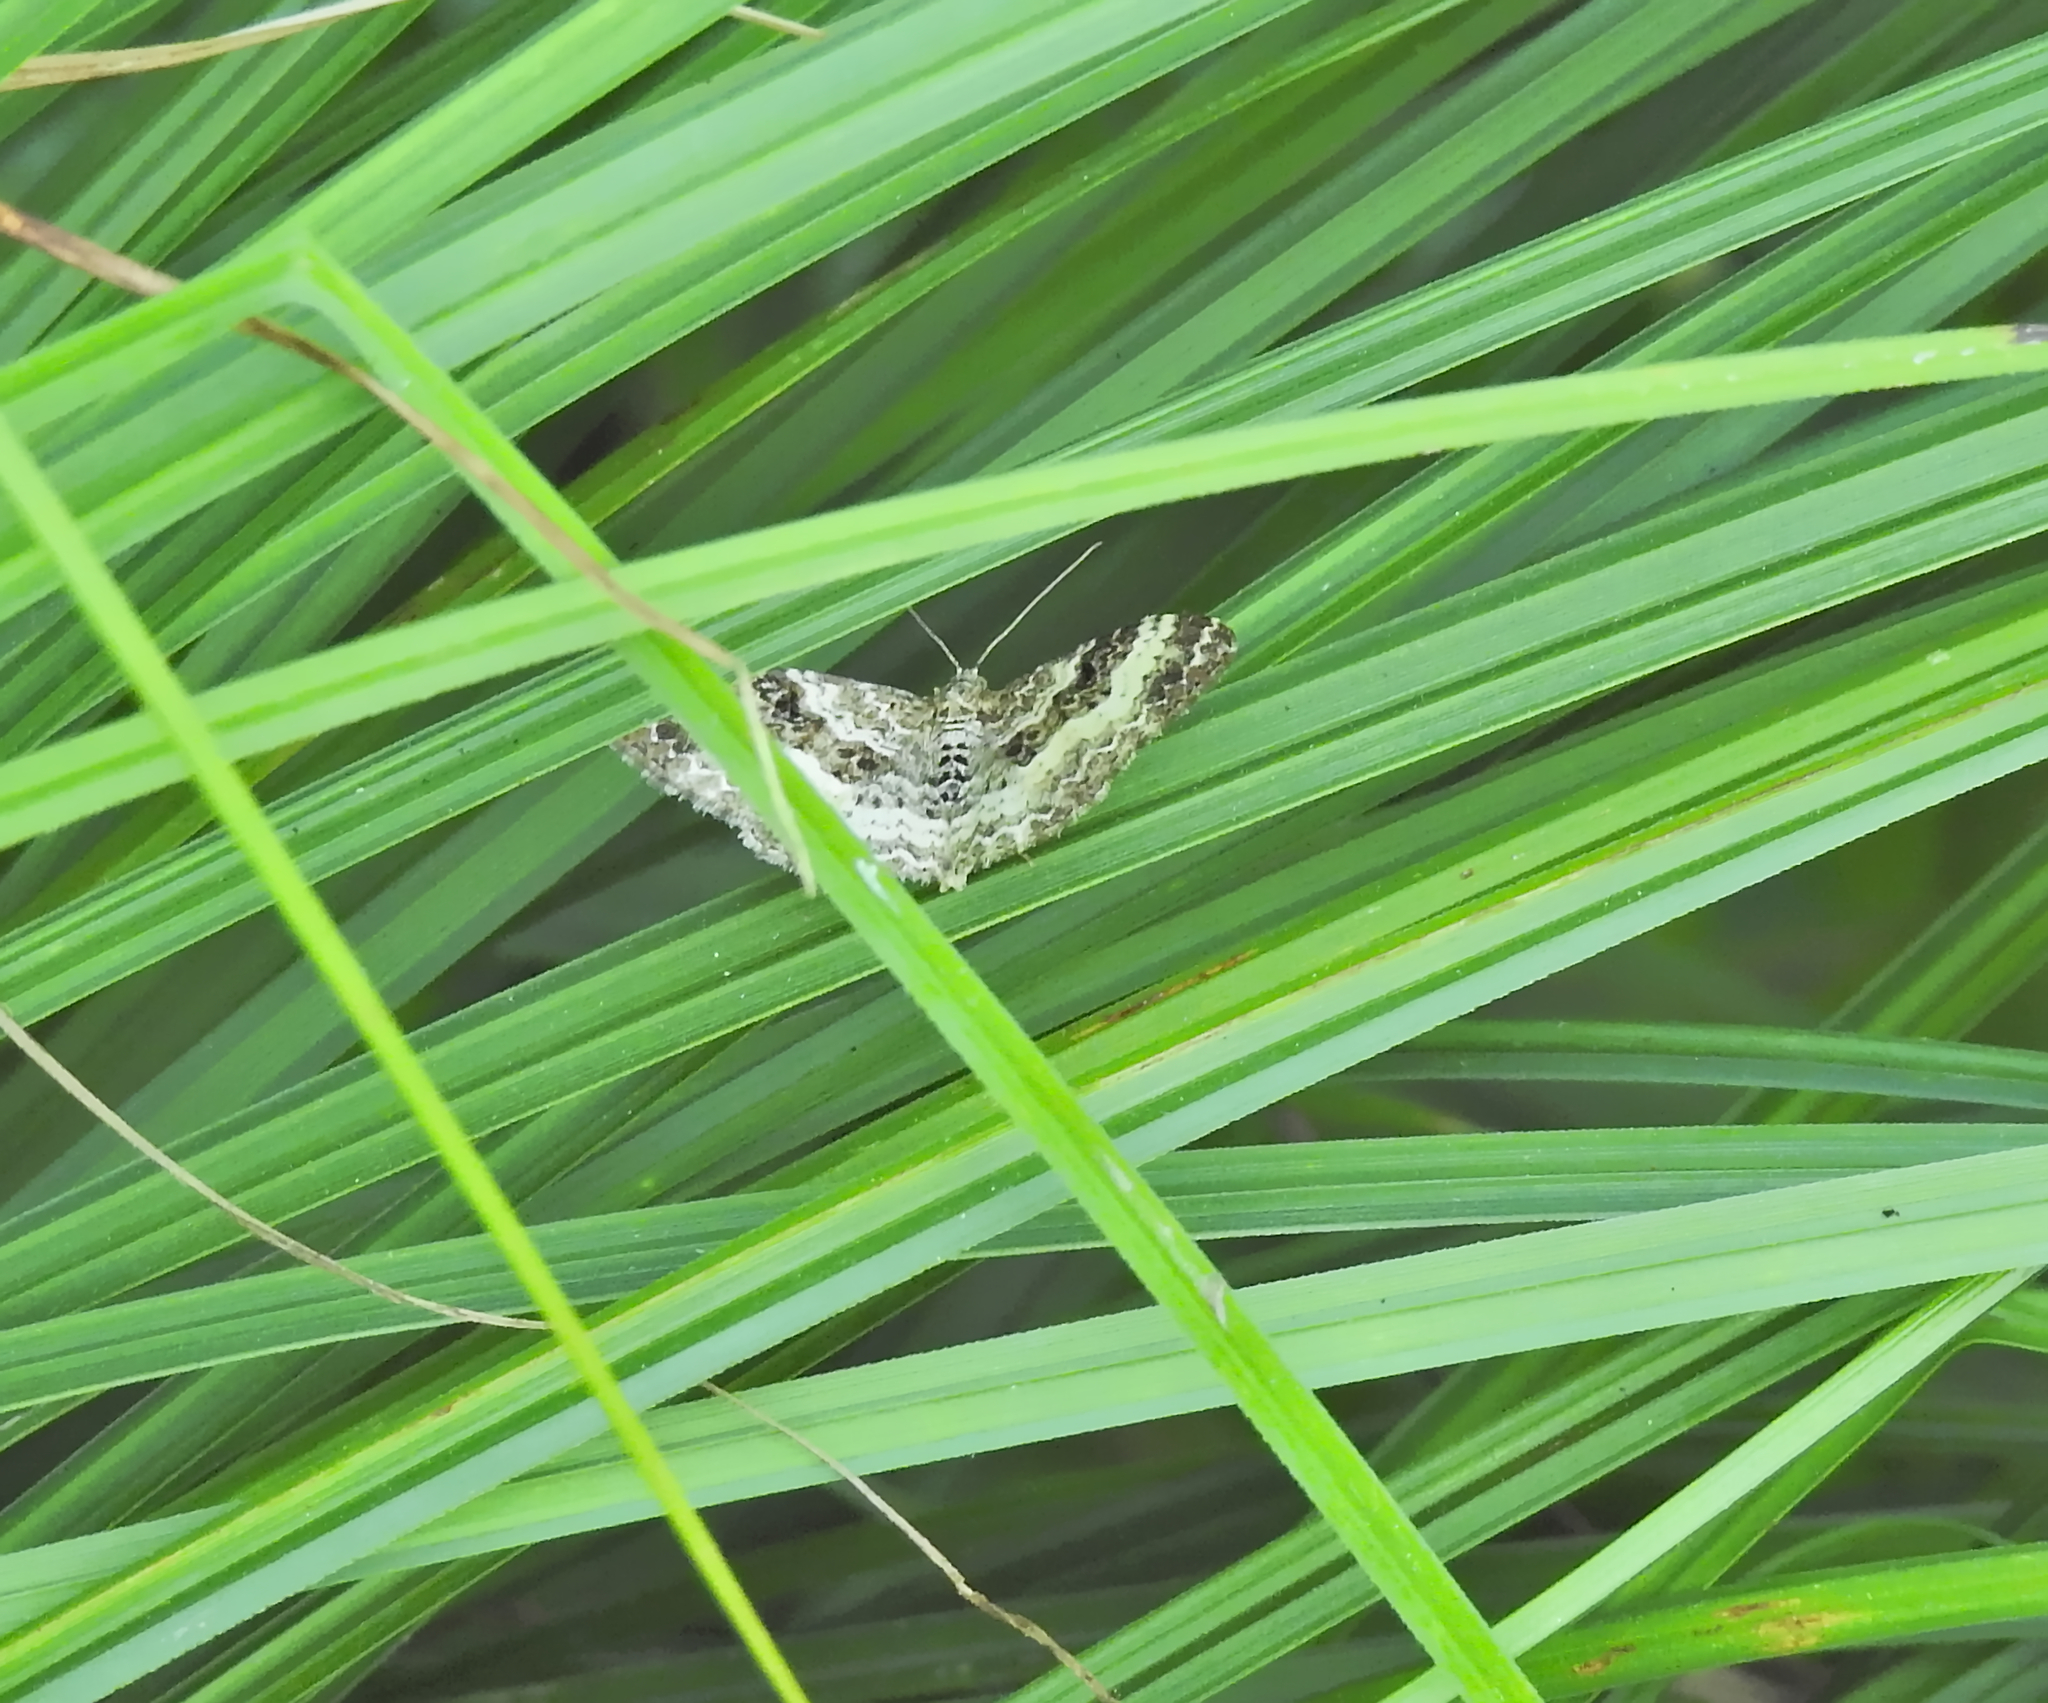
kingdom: Animalia
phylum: Arthropoda
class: Insecta
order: Lepidoptera
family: Geometridae
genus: Epirrhoe
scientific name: Epirrhoe alternata
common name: Common carpet
